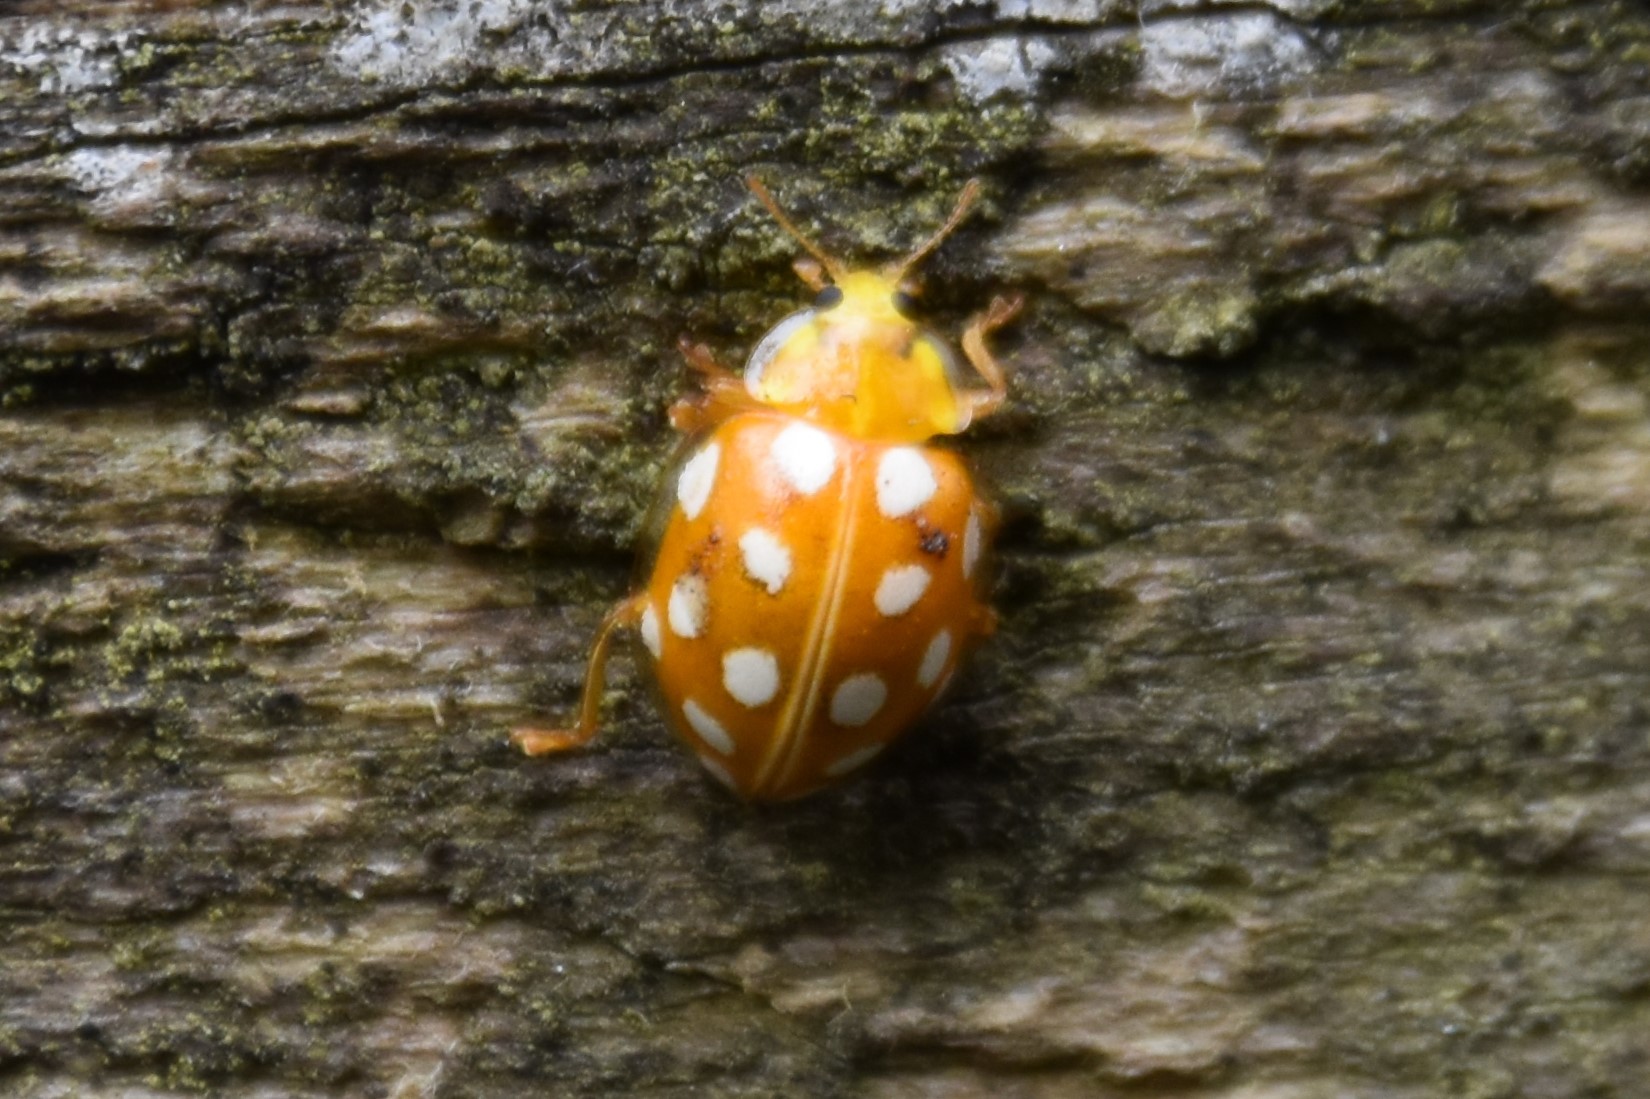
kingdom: Animalia
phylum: Arthropoda
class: Insecta
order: Coleoptera
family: Coccinellidae
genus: Halyzia
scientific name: Halyzia sedecimguttata
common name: Orange ladybird
